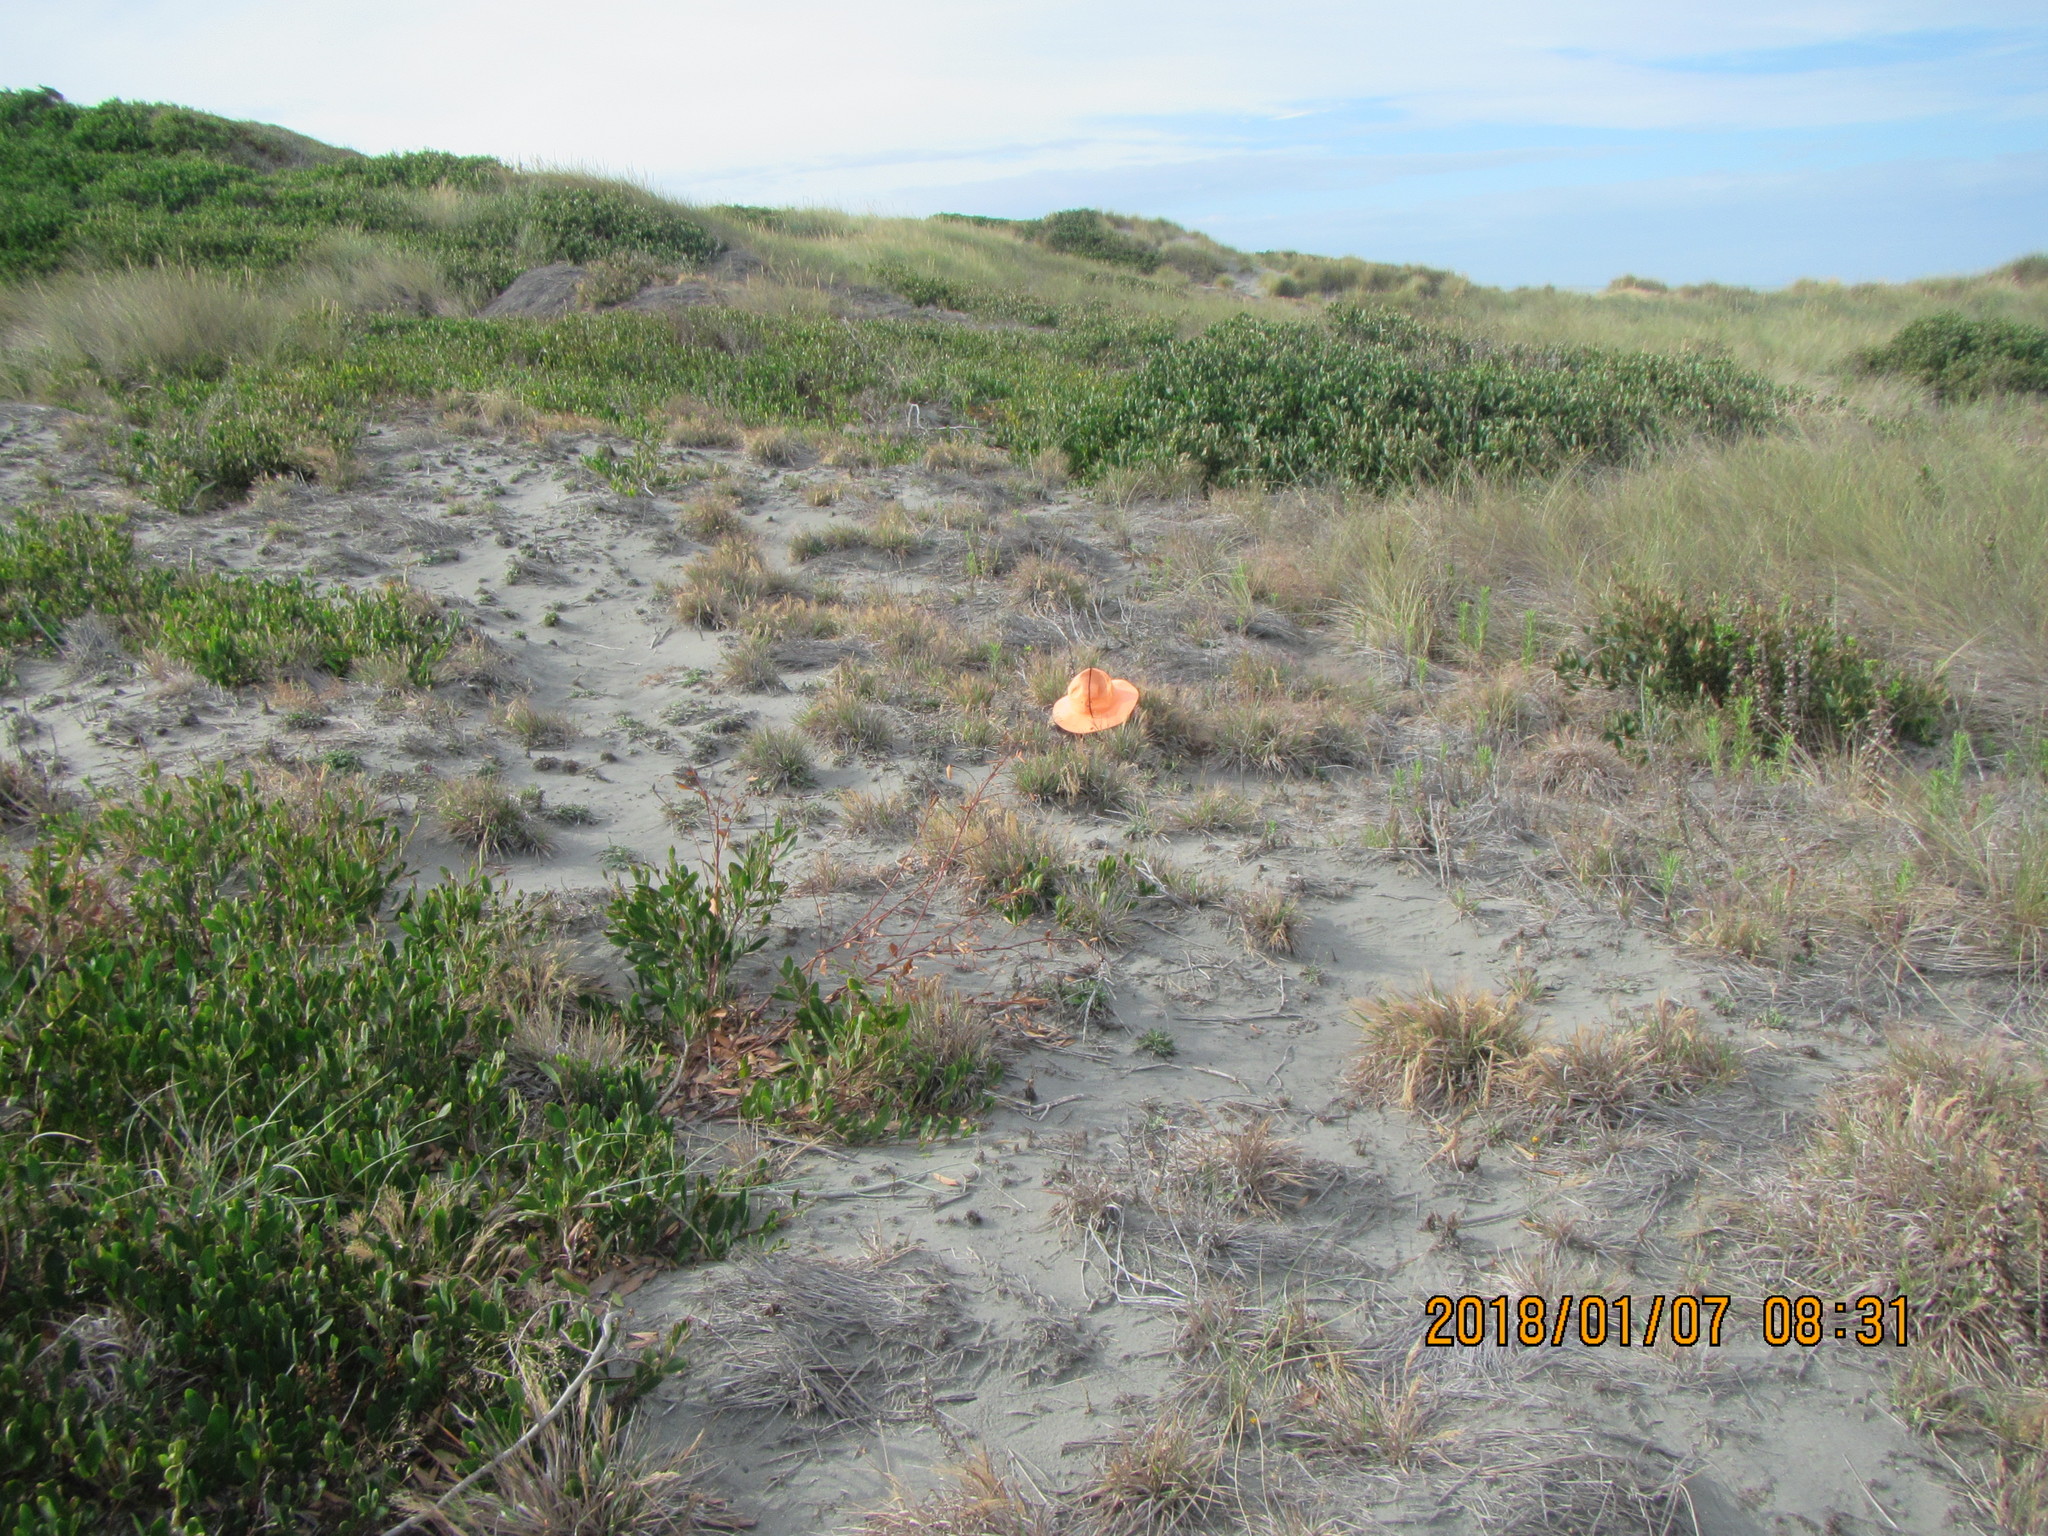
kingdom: Plantae
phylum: Tracheophyta
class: Liliopsida
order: Poales
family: Poaceae
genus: Lachnagrostis
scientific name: Lachnagrostis billardierei
